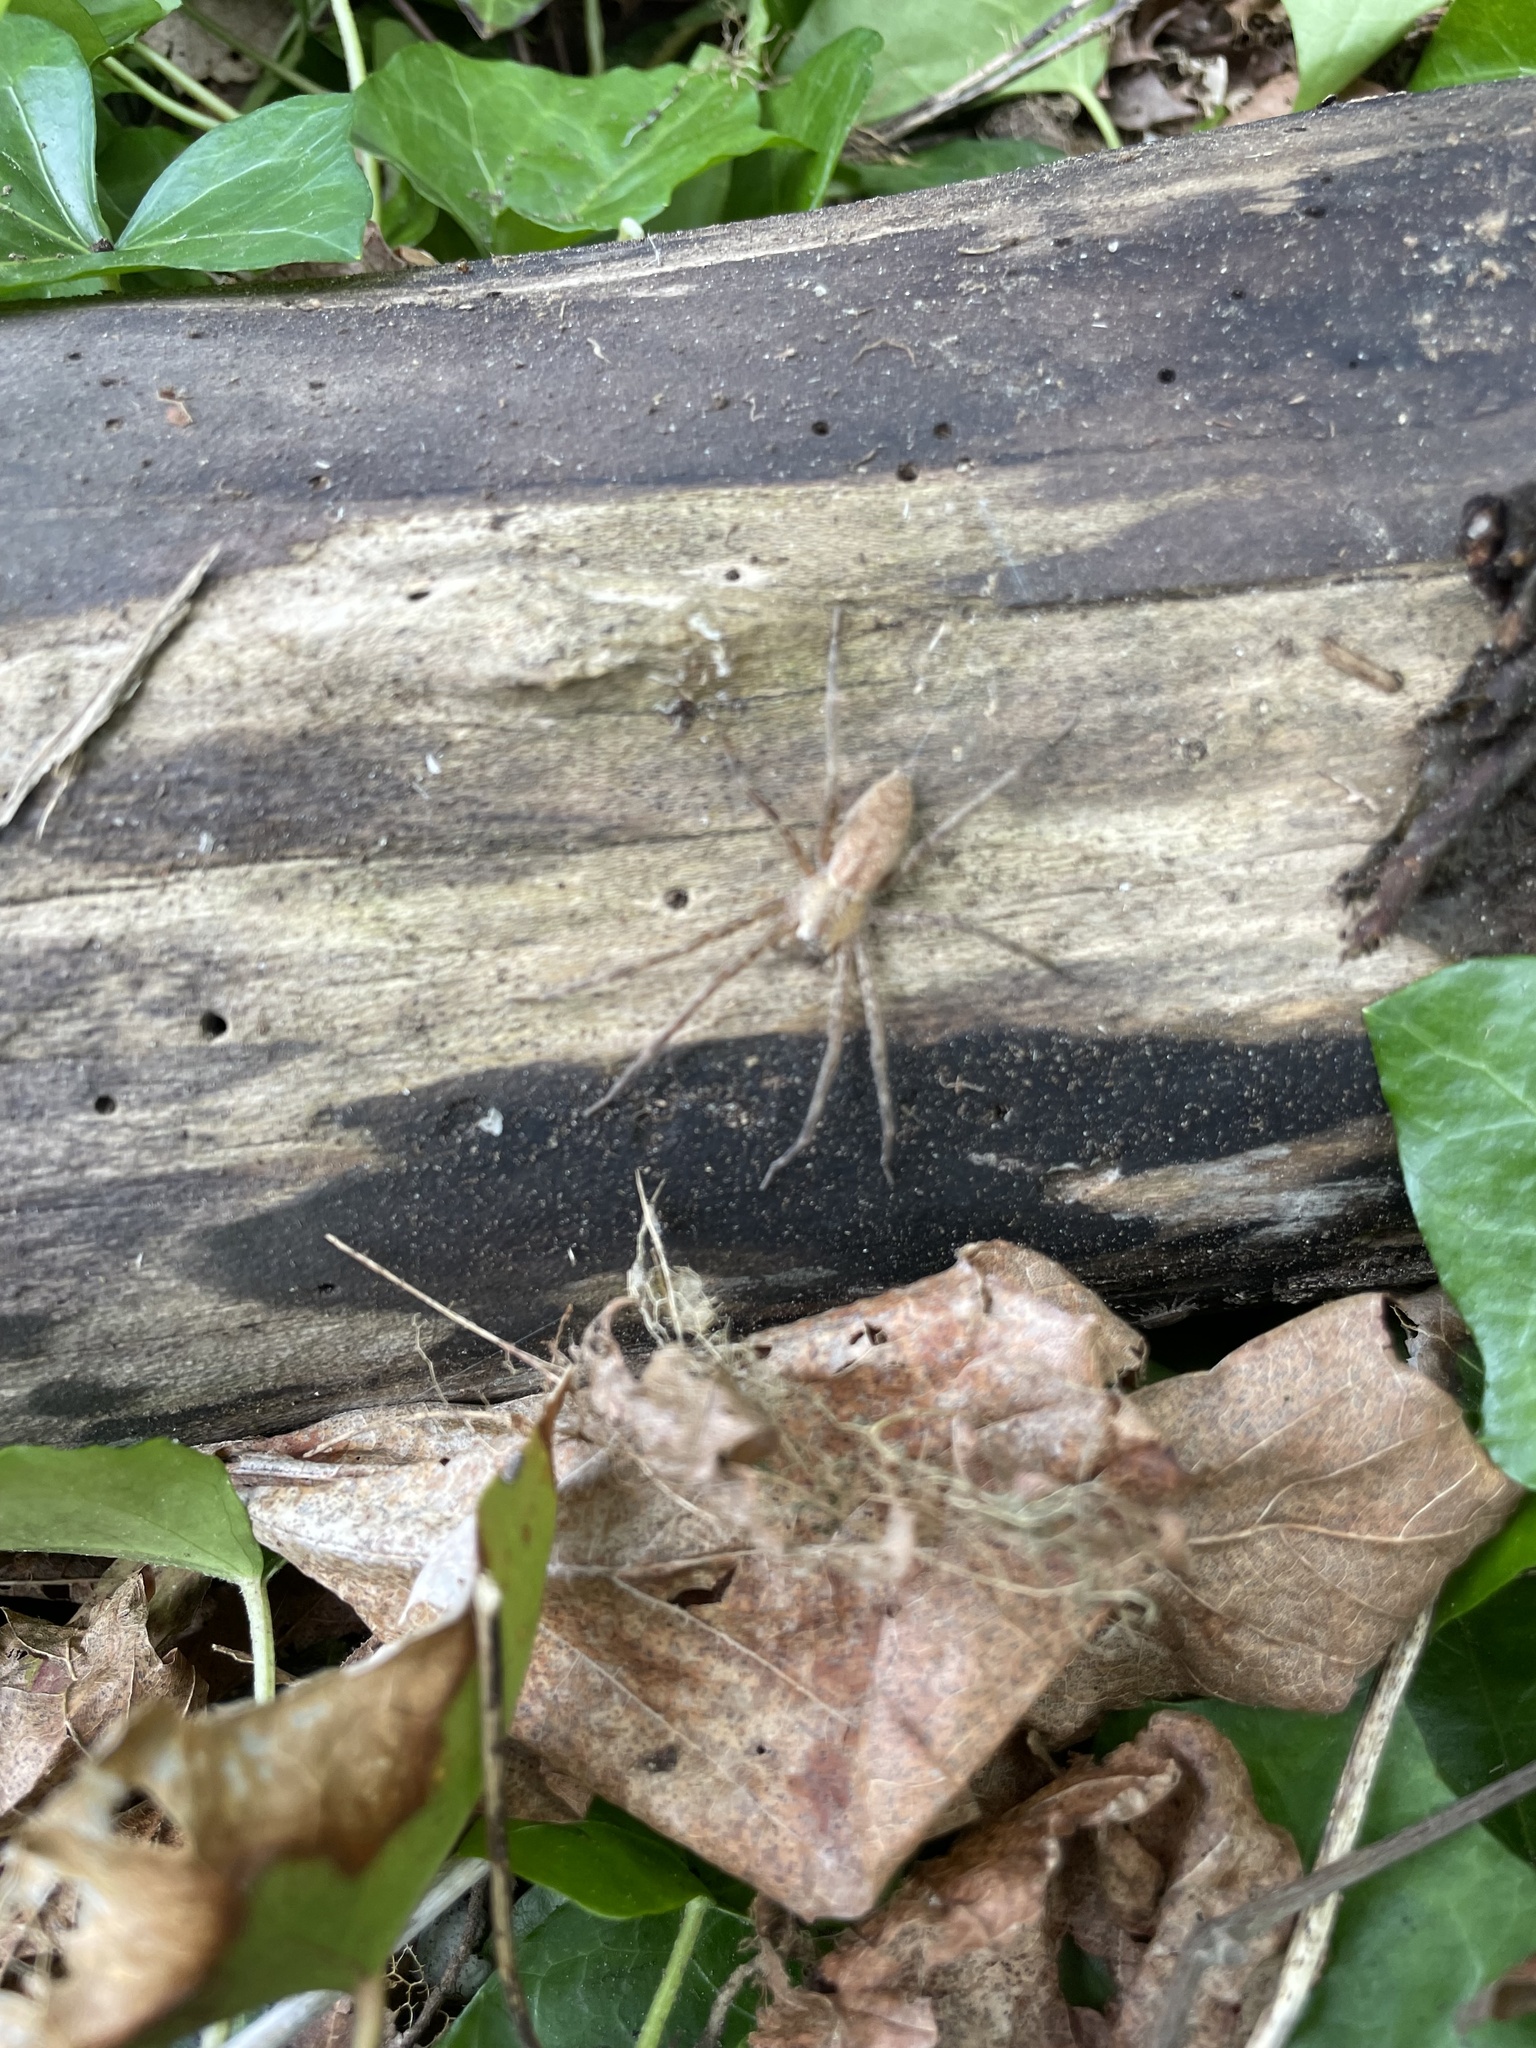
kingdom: Animalia
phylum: Arthropoda
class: Arachnida
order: Araneae
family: Pisauridae
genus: Pisaurina
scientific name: Pisaurina mira
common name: American nursery web spider
